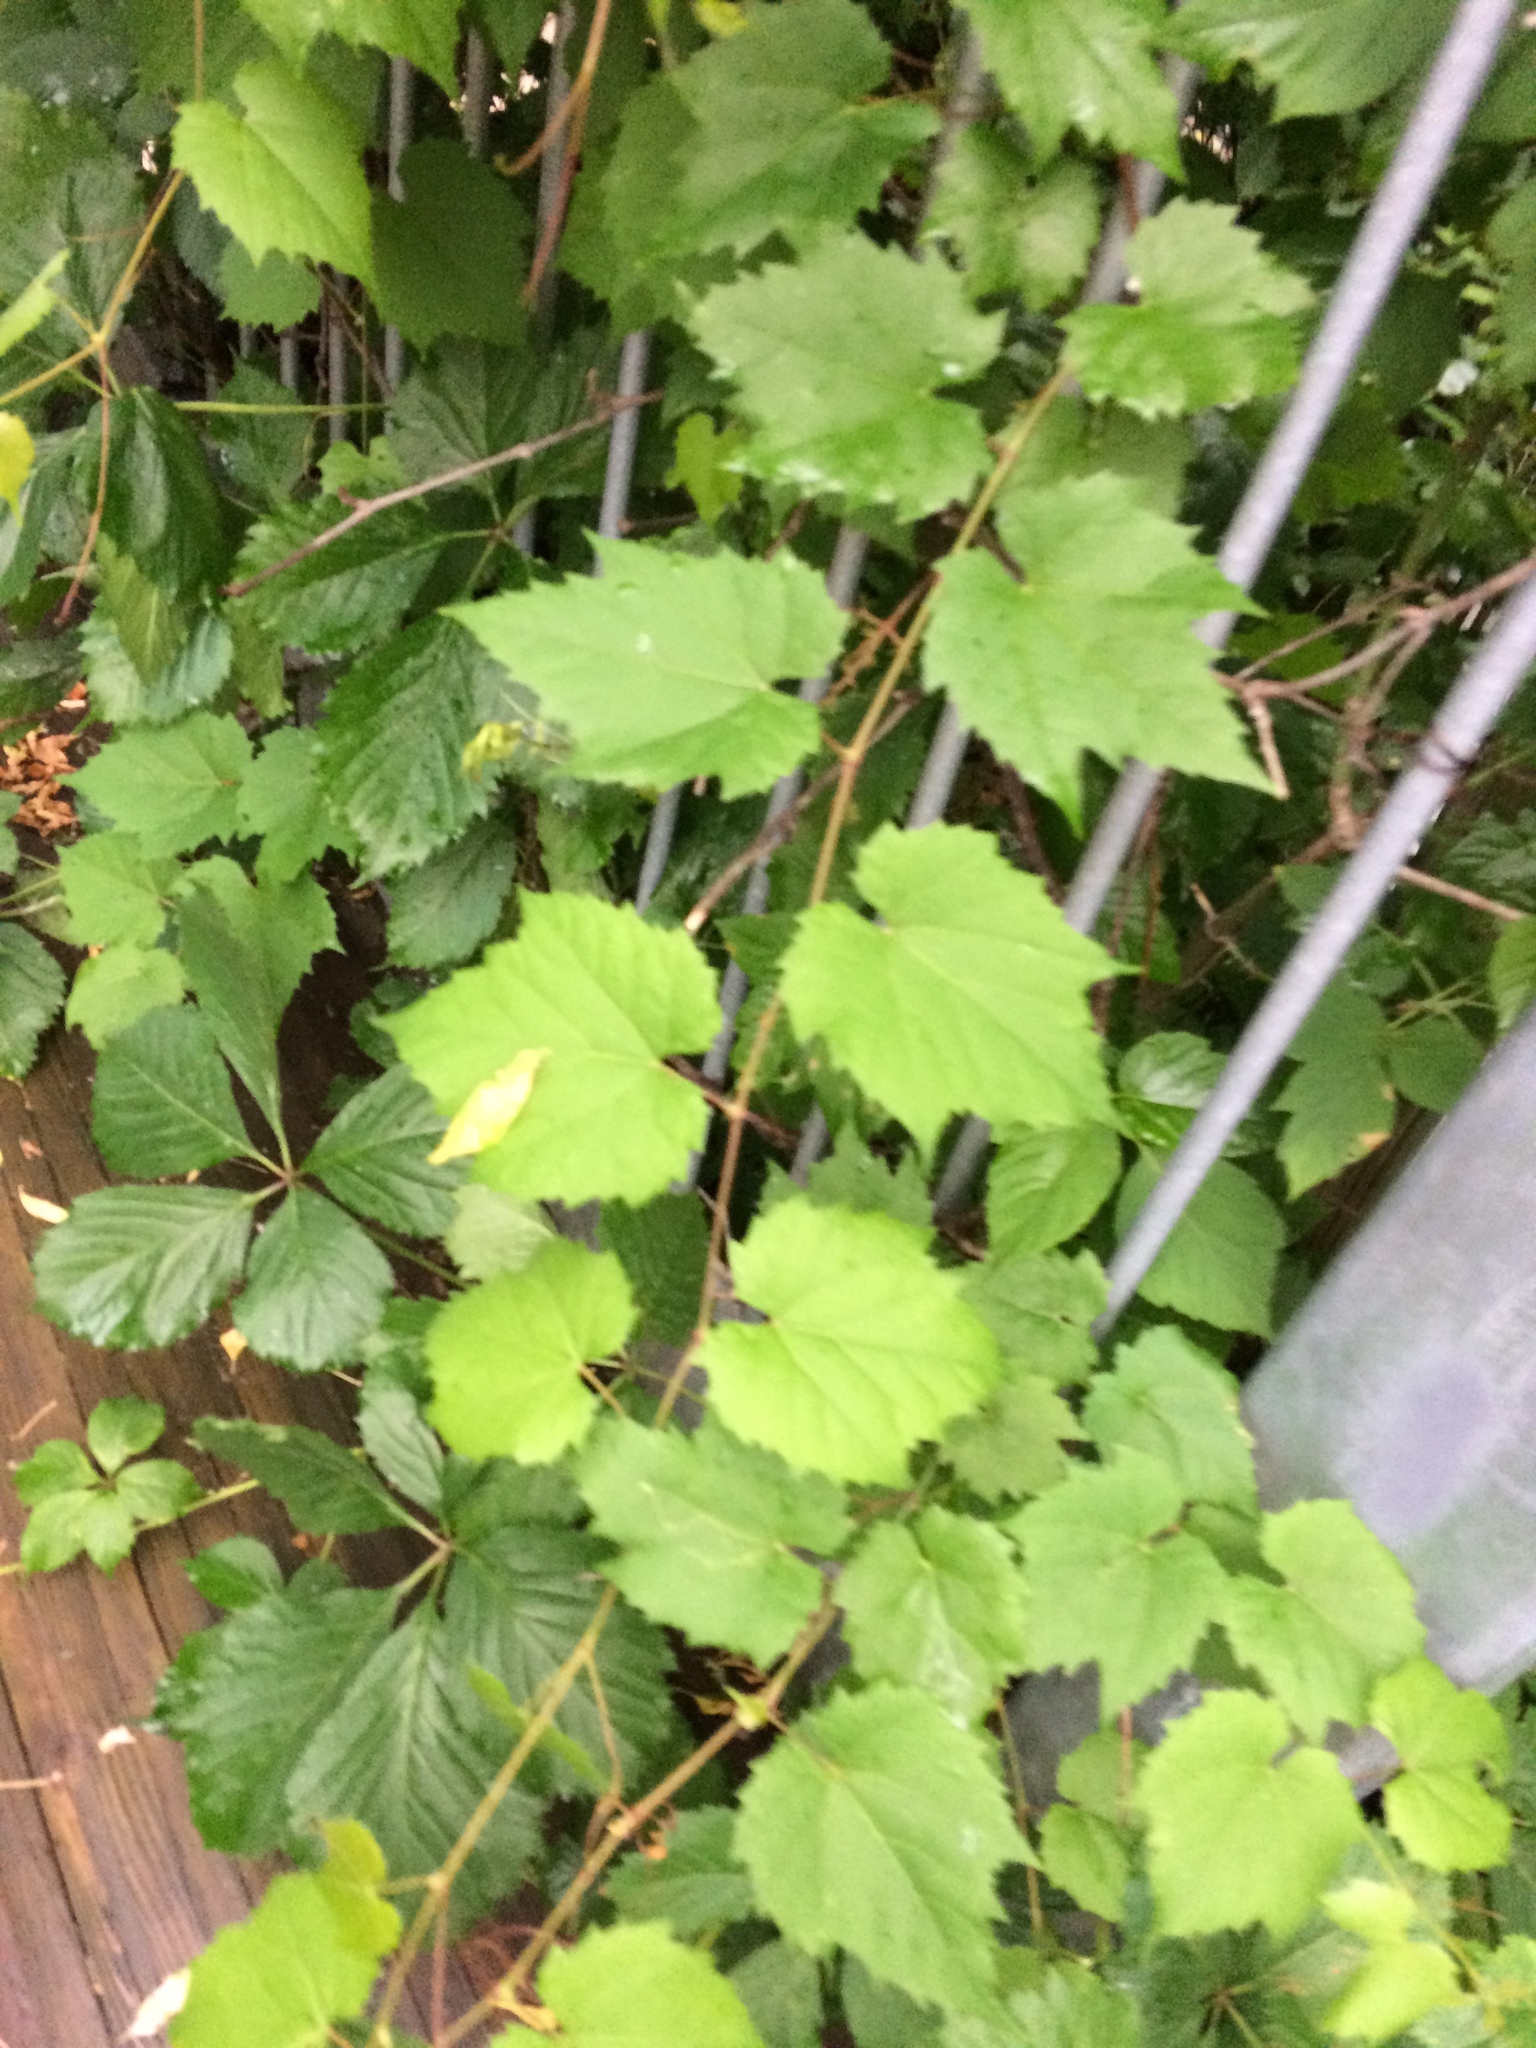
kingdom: Plantae
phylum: Tracheophyta
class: Magnoliopsida
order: Vitales
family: Vitaceae
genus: Vitis
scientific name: Vitis riparia
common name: Frost grape
